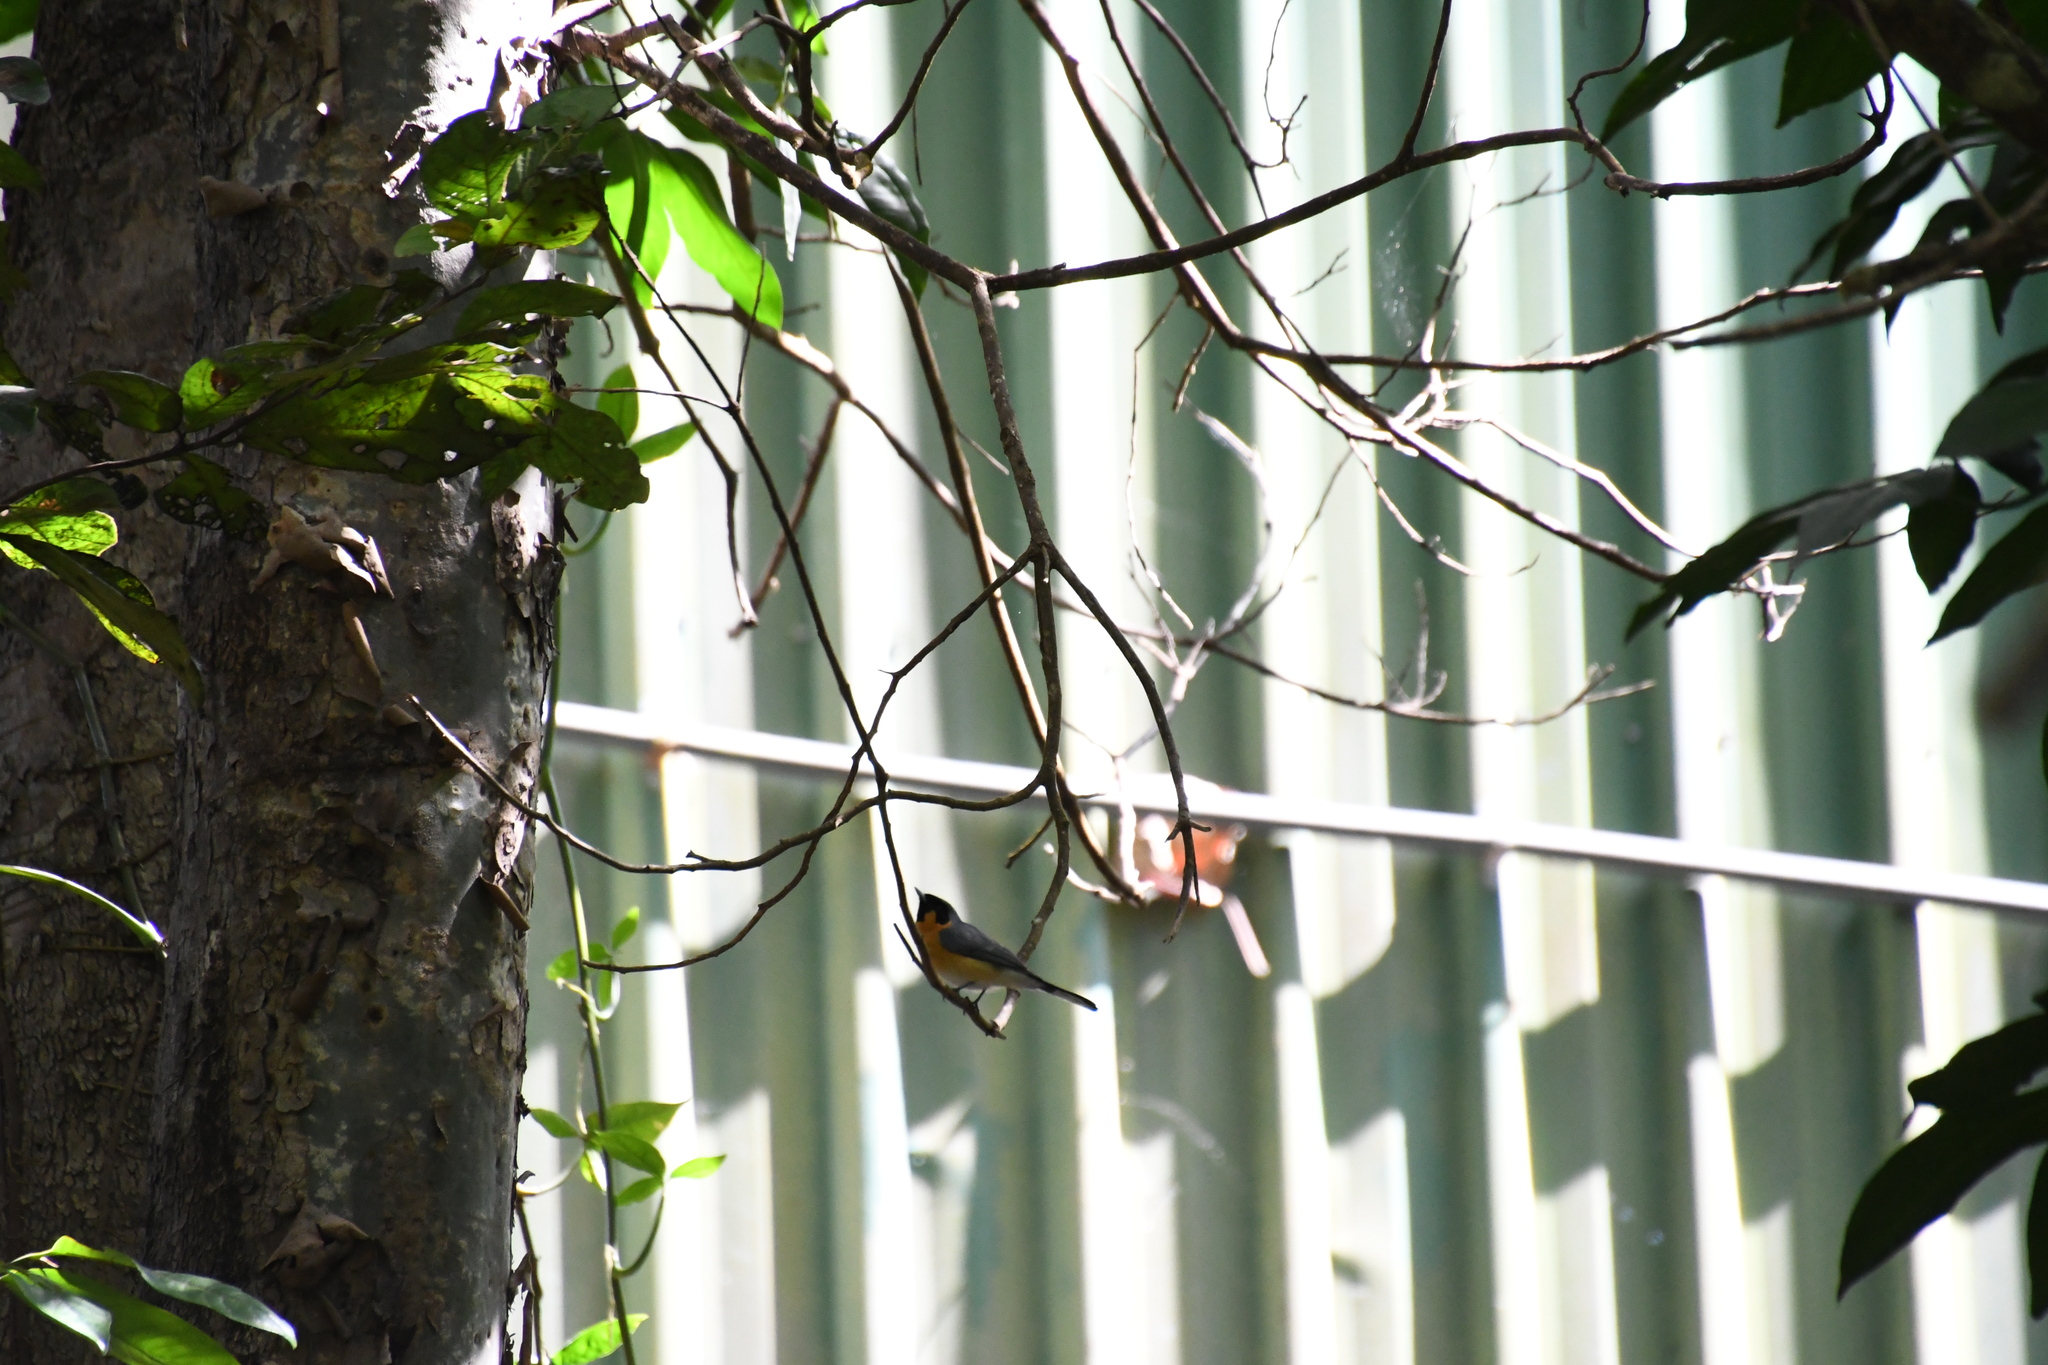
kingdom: Animalia
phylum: Chordata
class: Aves
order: Passeriformes
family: Monarchidae
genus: Symposiachrus
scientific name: Symposiachrus trivirgatus
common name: Spectacled monarch
